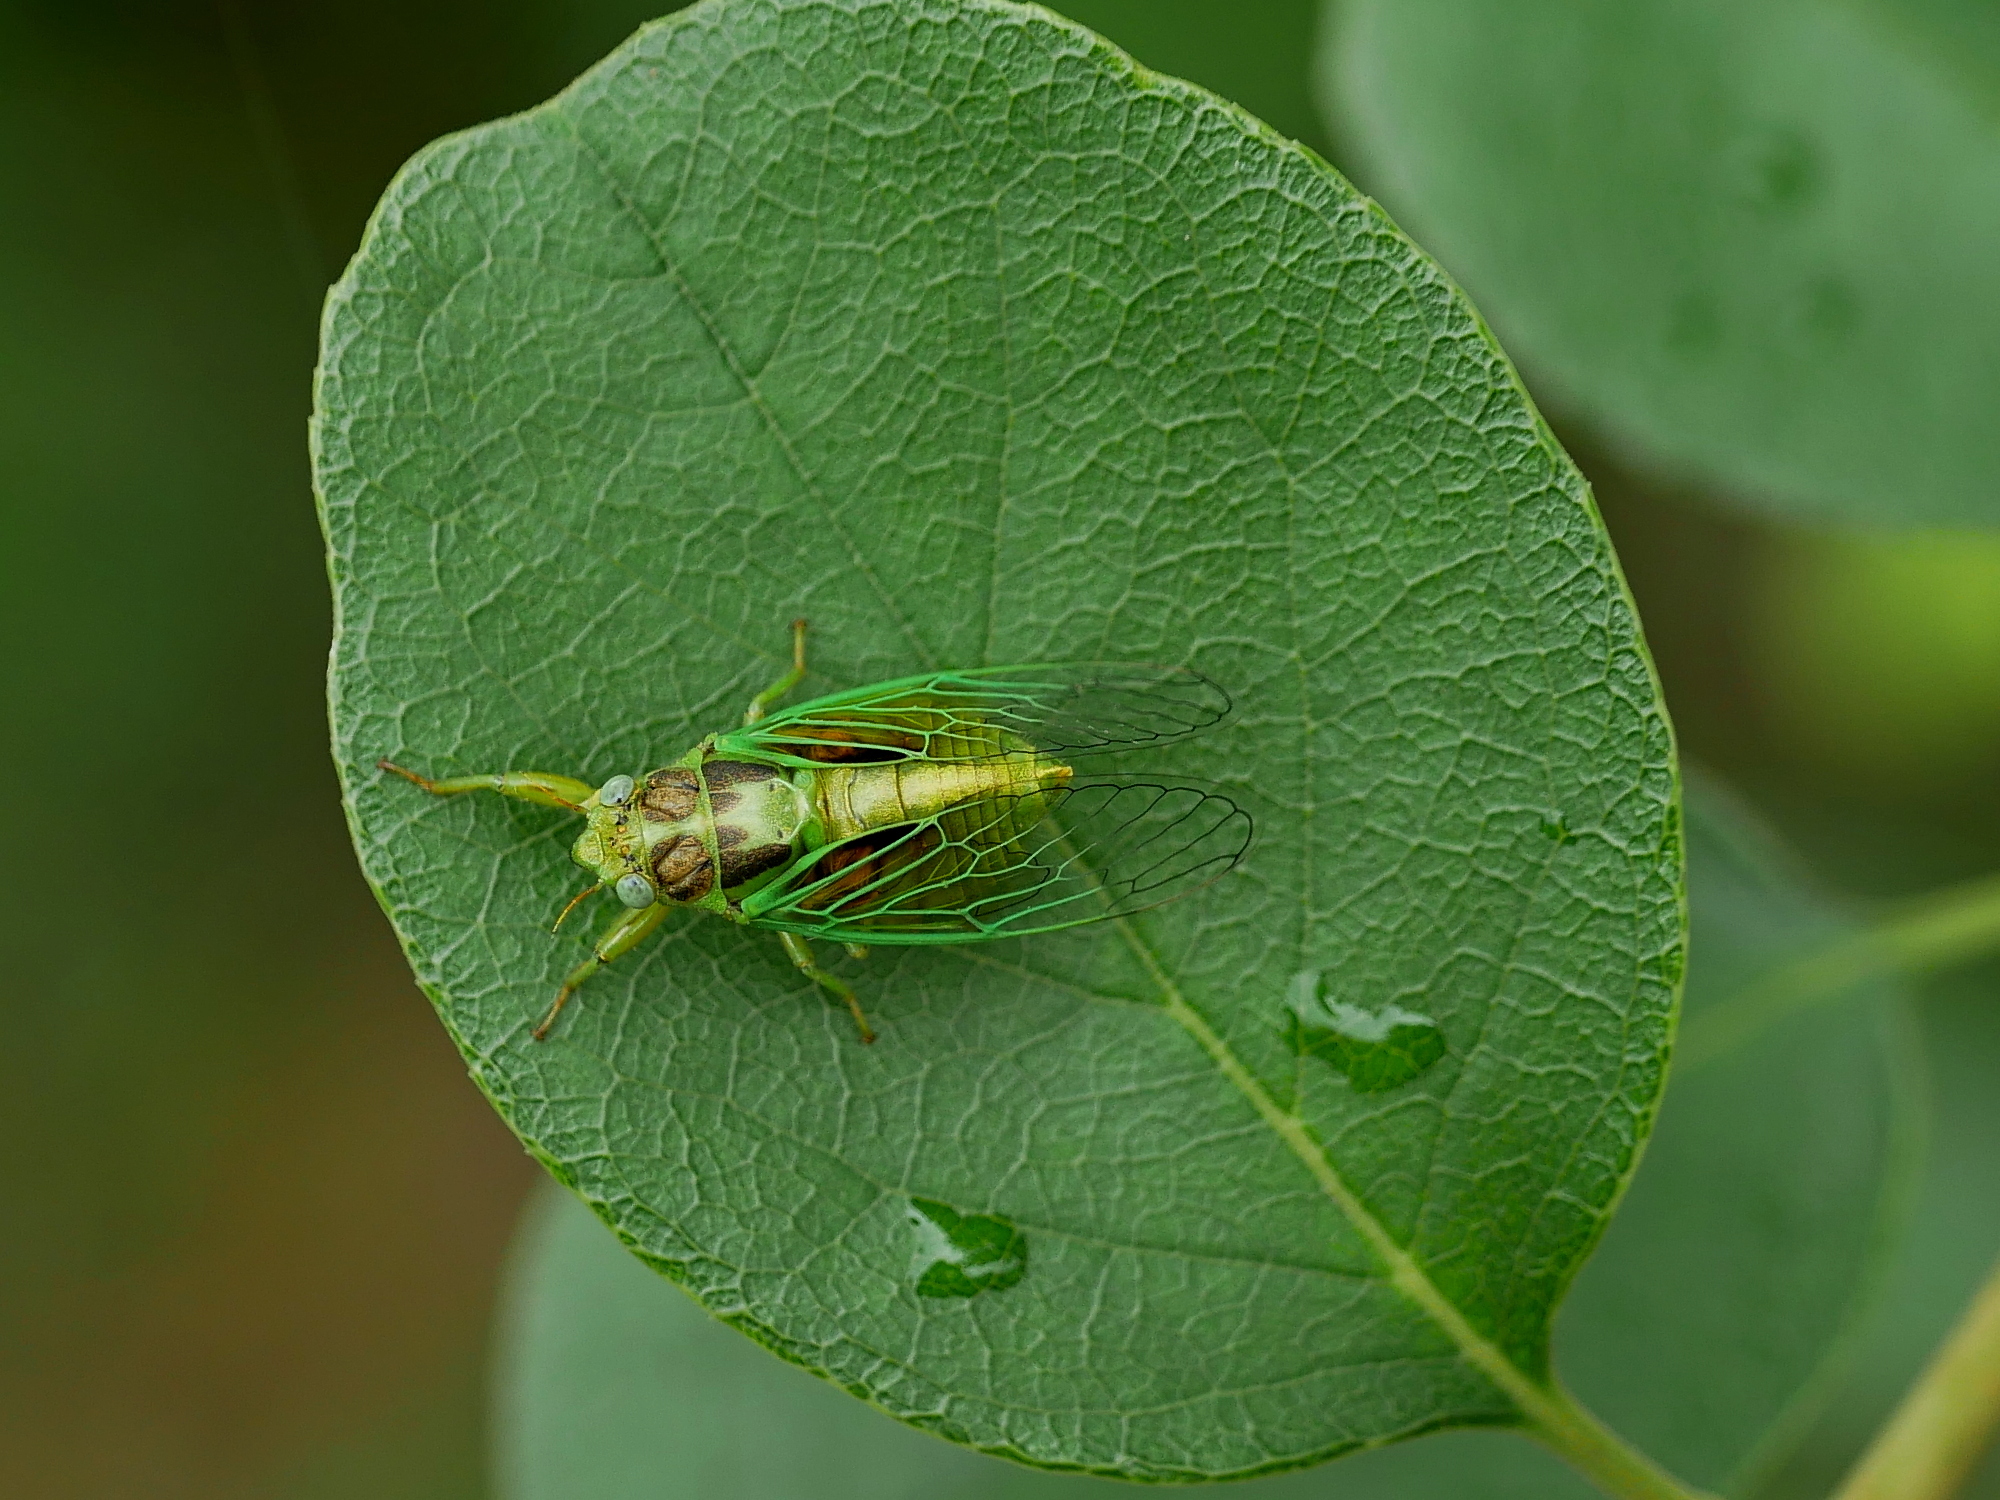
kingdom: Animalia
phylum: Arthropoda
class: Insecta
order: Hemiptera
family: Cicadidae
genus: Mogannia
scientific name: Mogannia hebes
